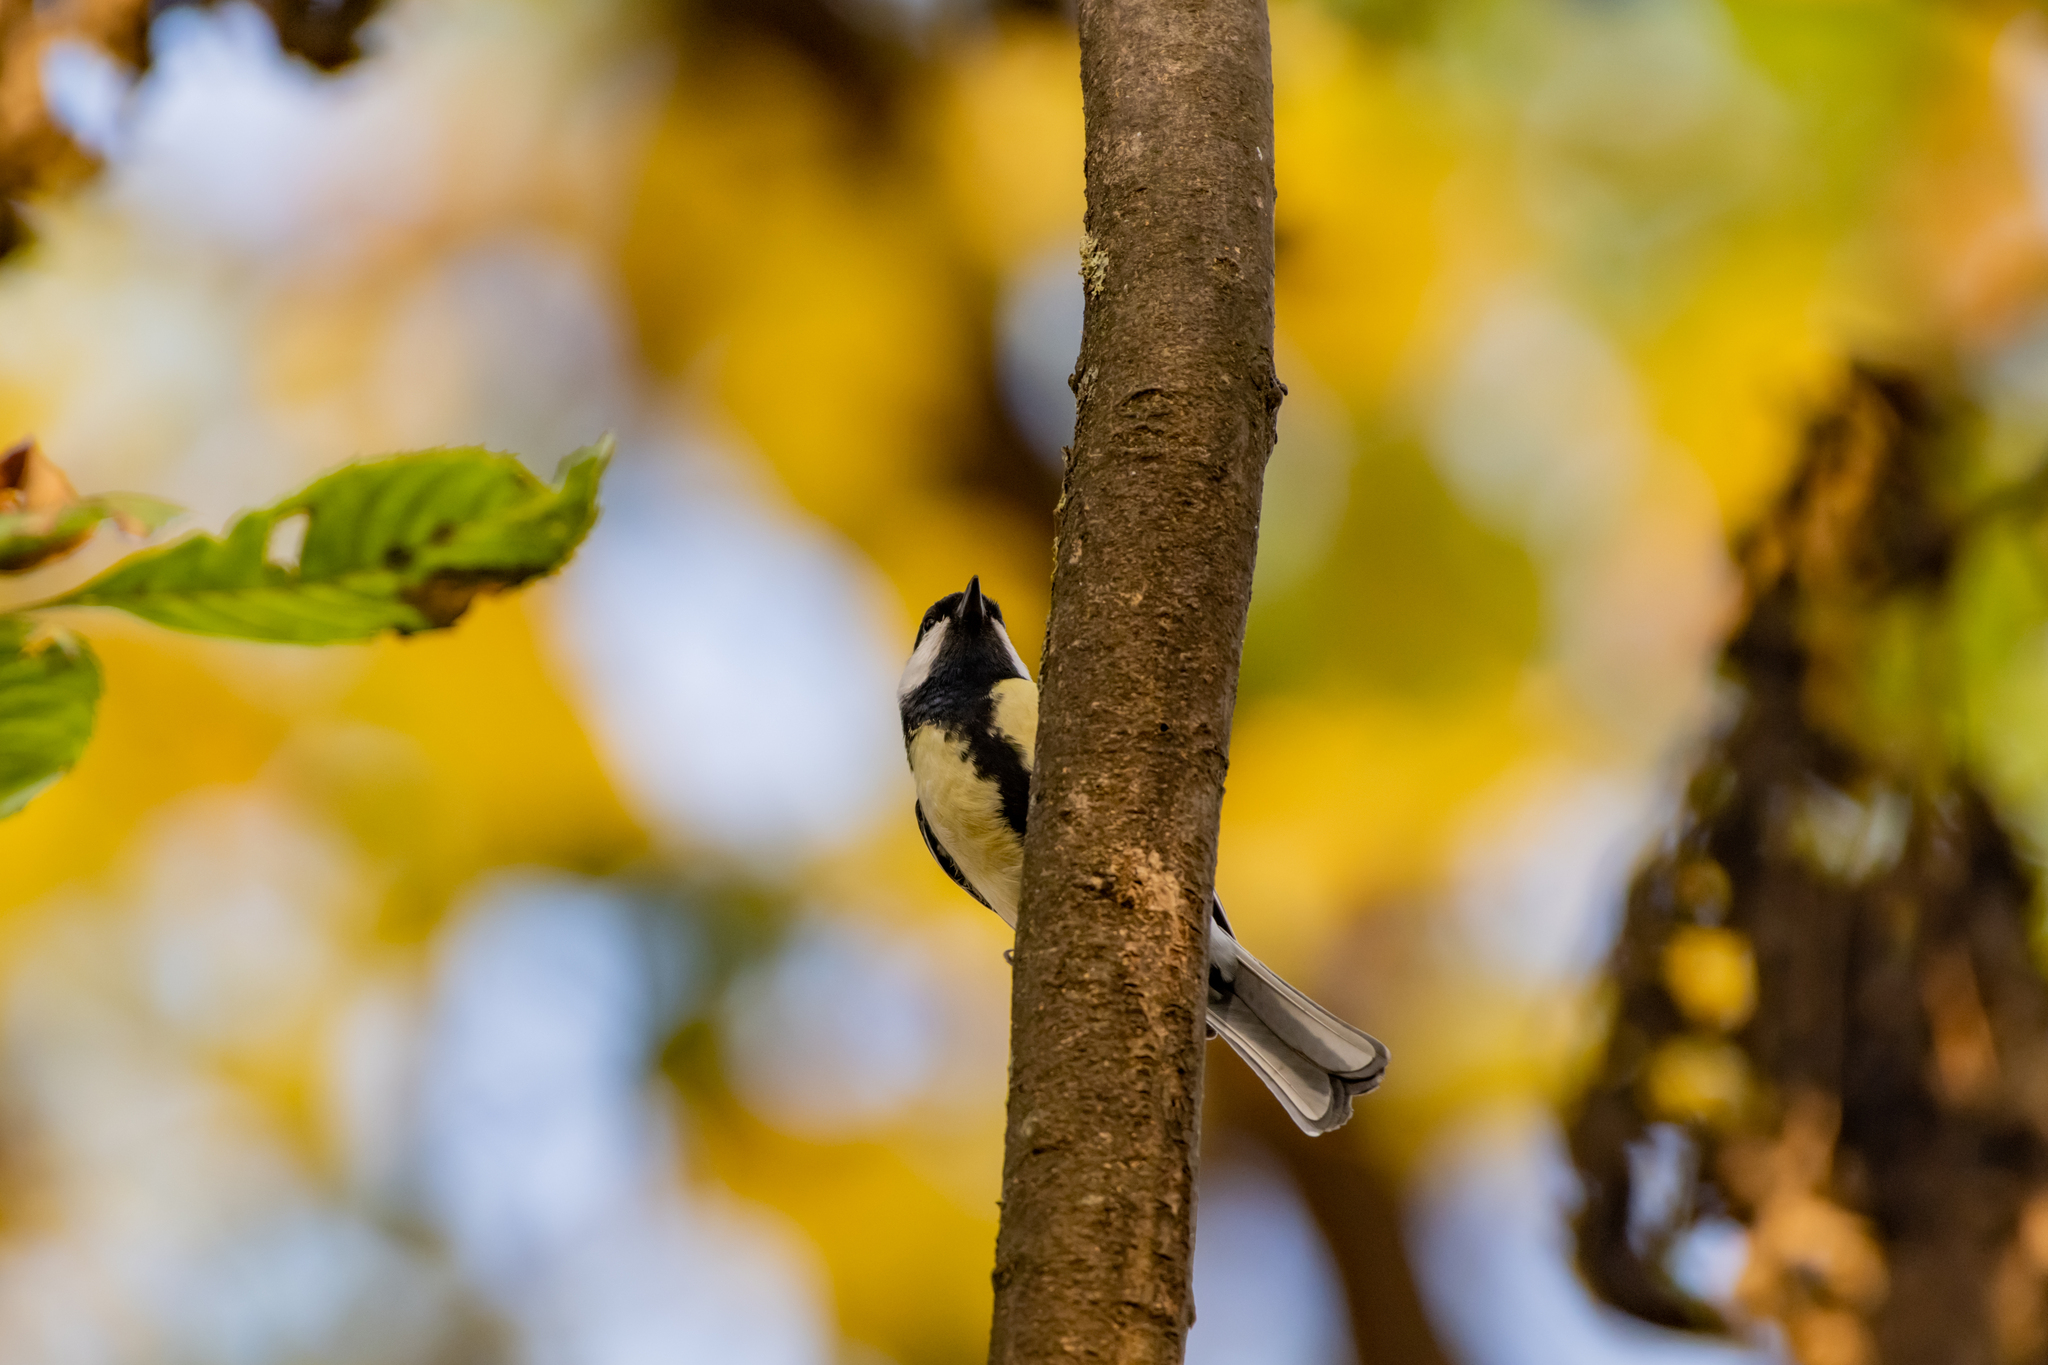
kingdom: Animalia
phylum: Chordata
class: Aves
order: Passeriformes
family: Paridae
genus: Parus
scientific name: Parus major
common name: Great tit
